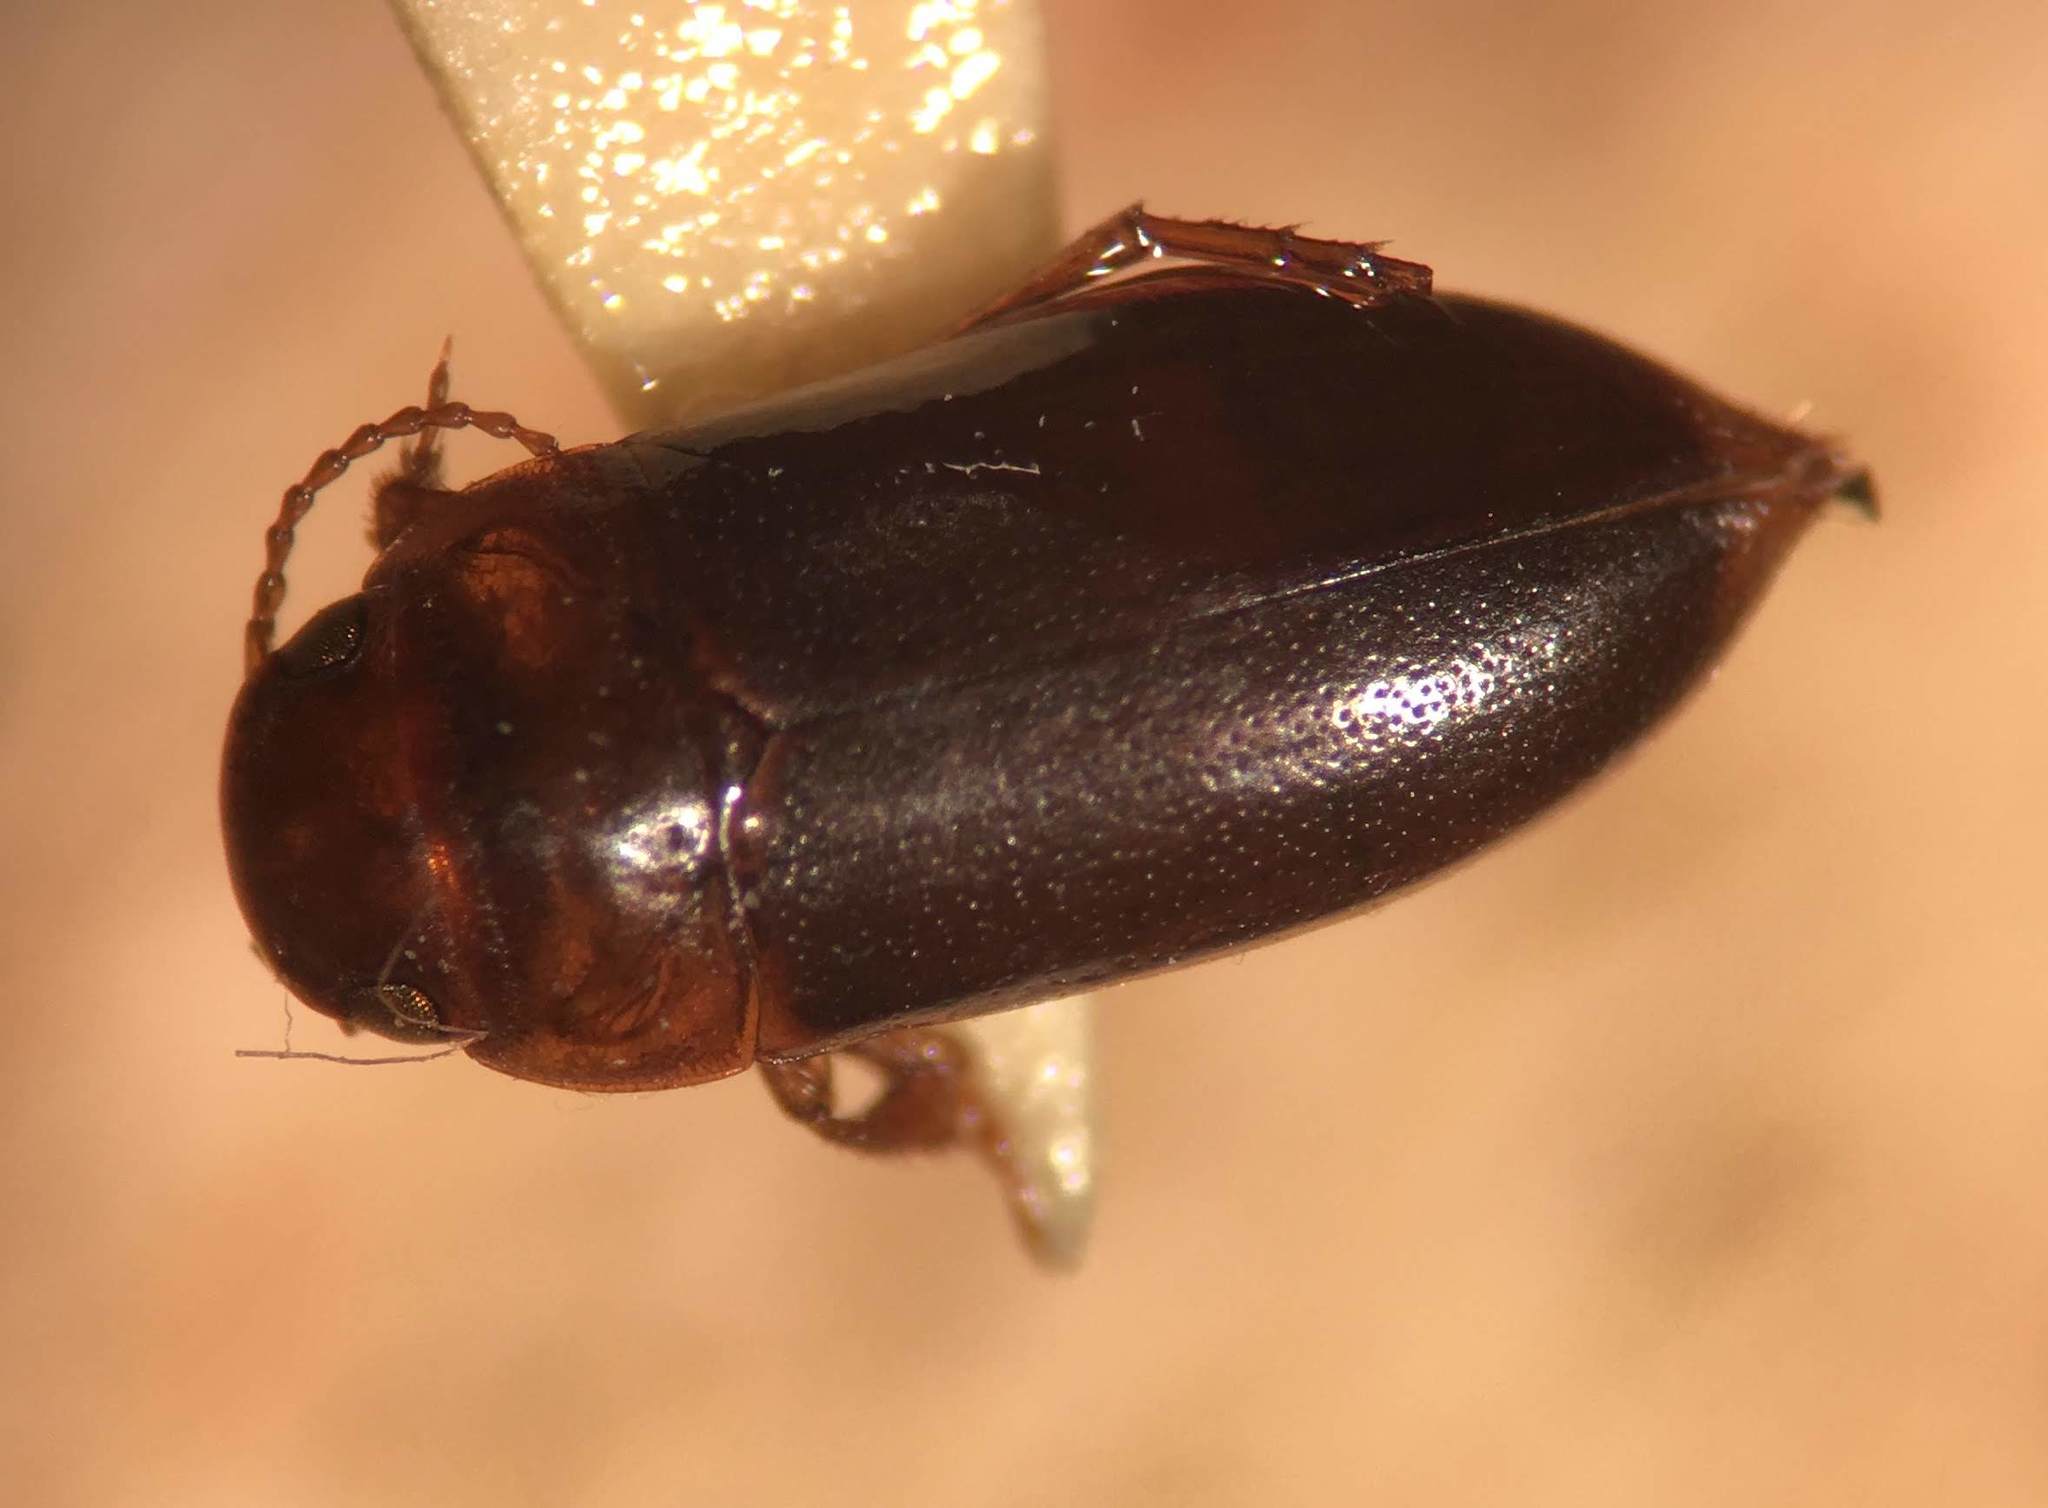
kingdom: Animalia
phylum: Arthropoda
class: Insecta
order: Coleoptera
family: Dytiscidae
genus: Celina
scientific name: Celina slossoni
